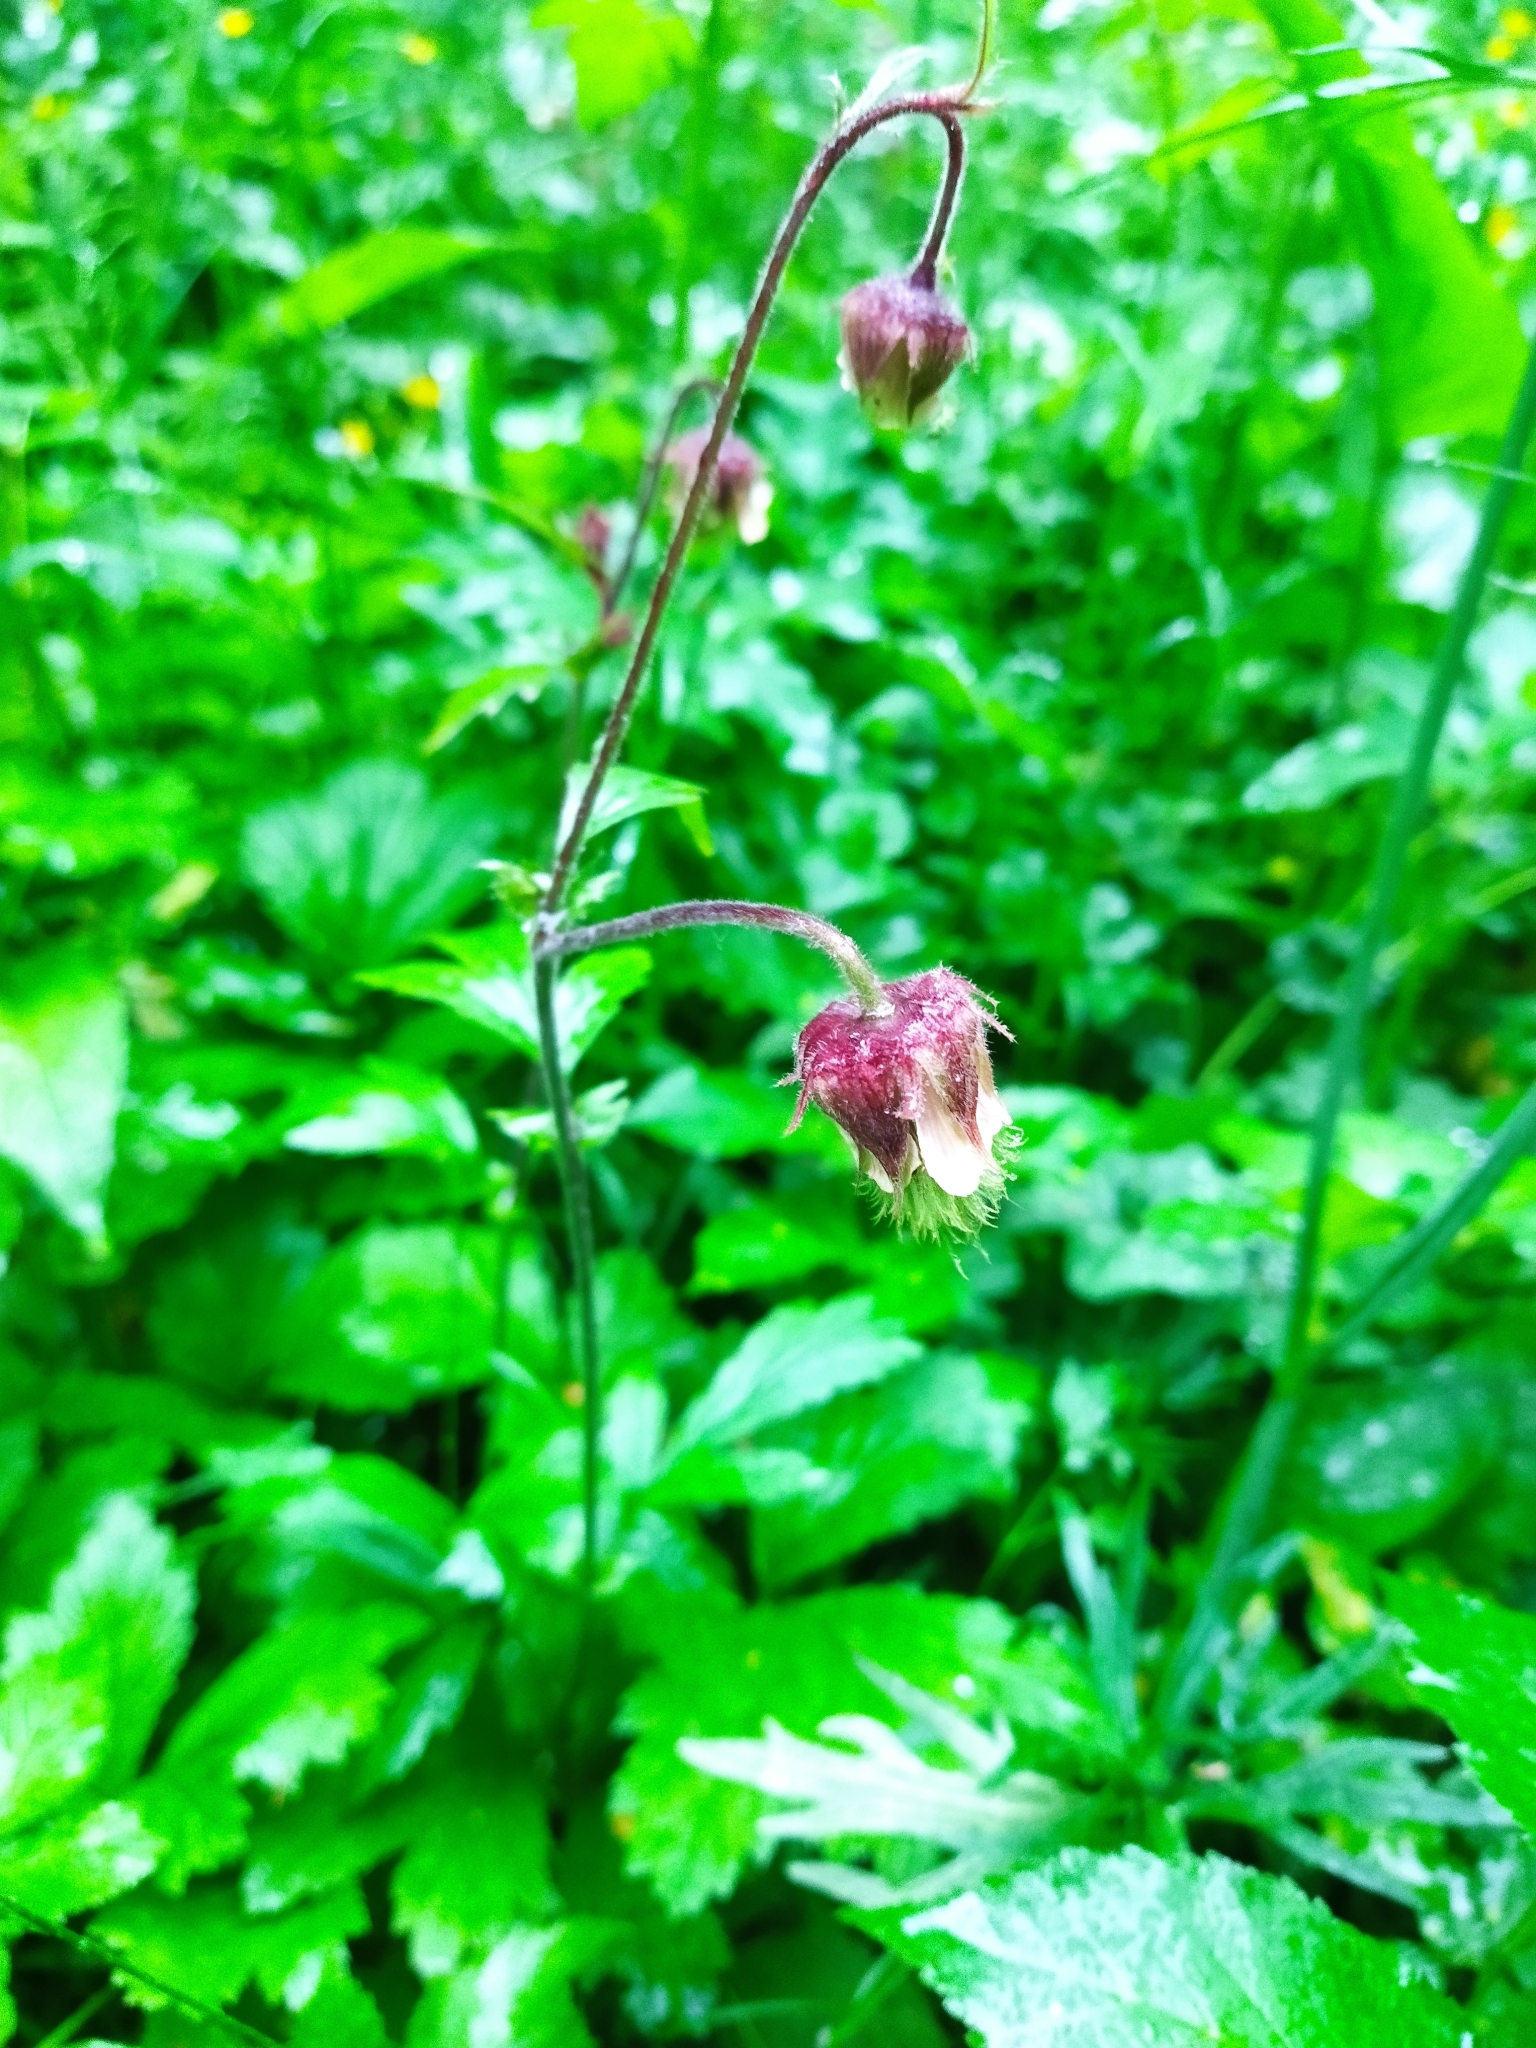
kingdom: Plantae
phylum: Tracheophyta
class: Magnoliopsida
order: Rosales
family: Rosaceae
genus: Geum
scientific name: Geum rivale
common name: Water avens
